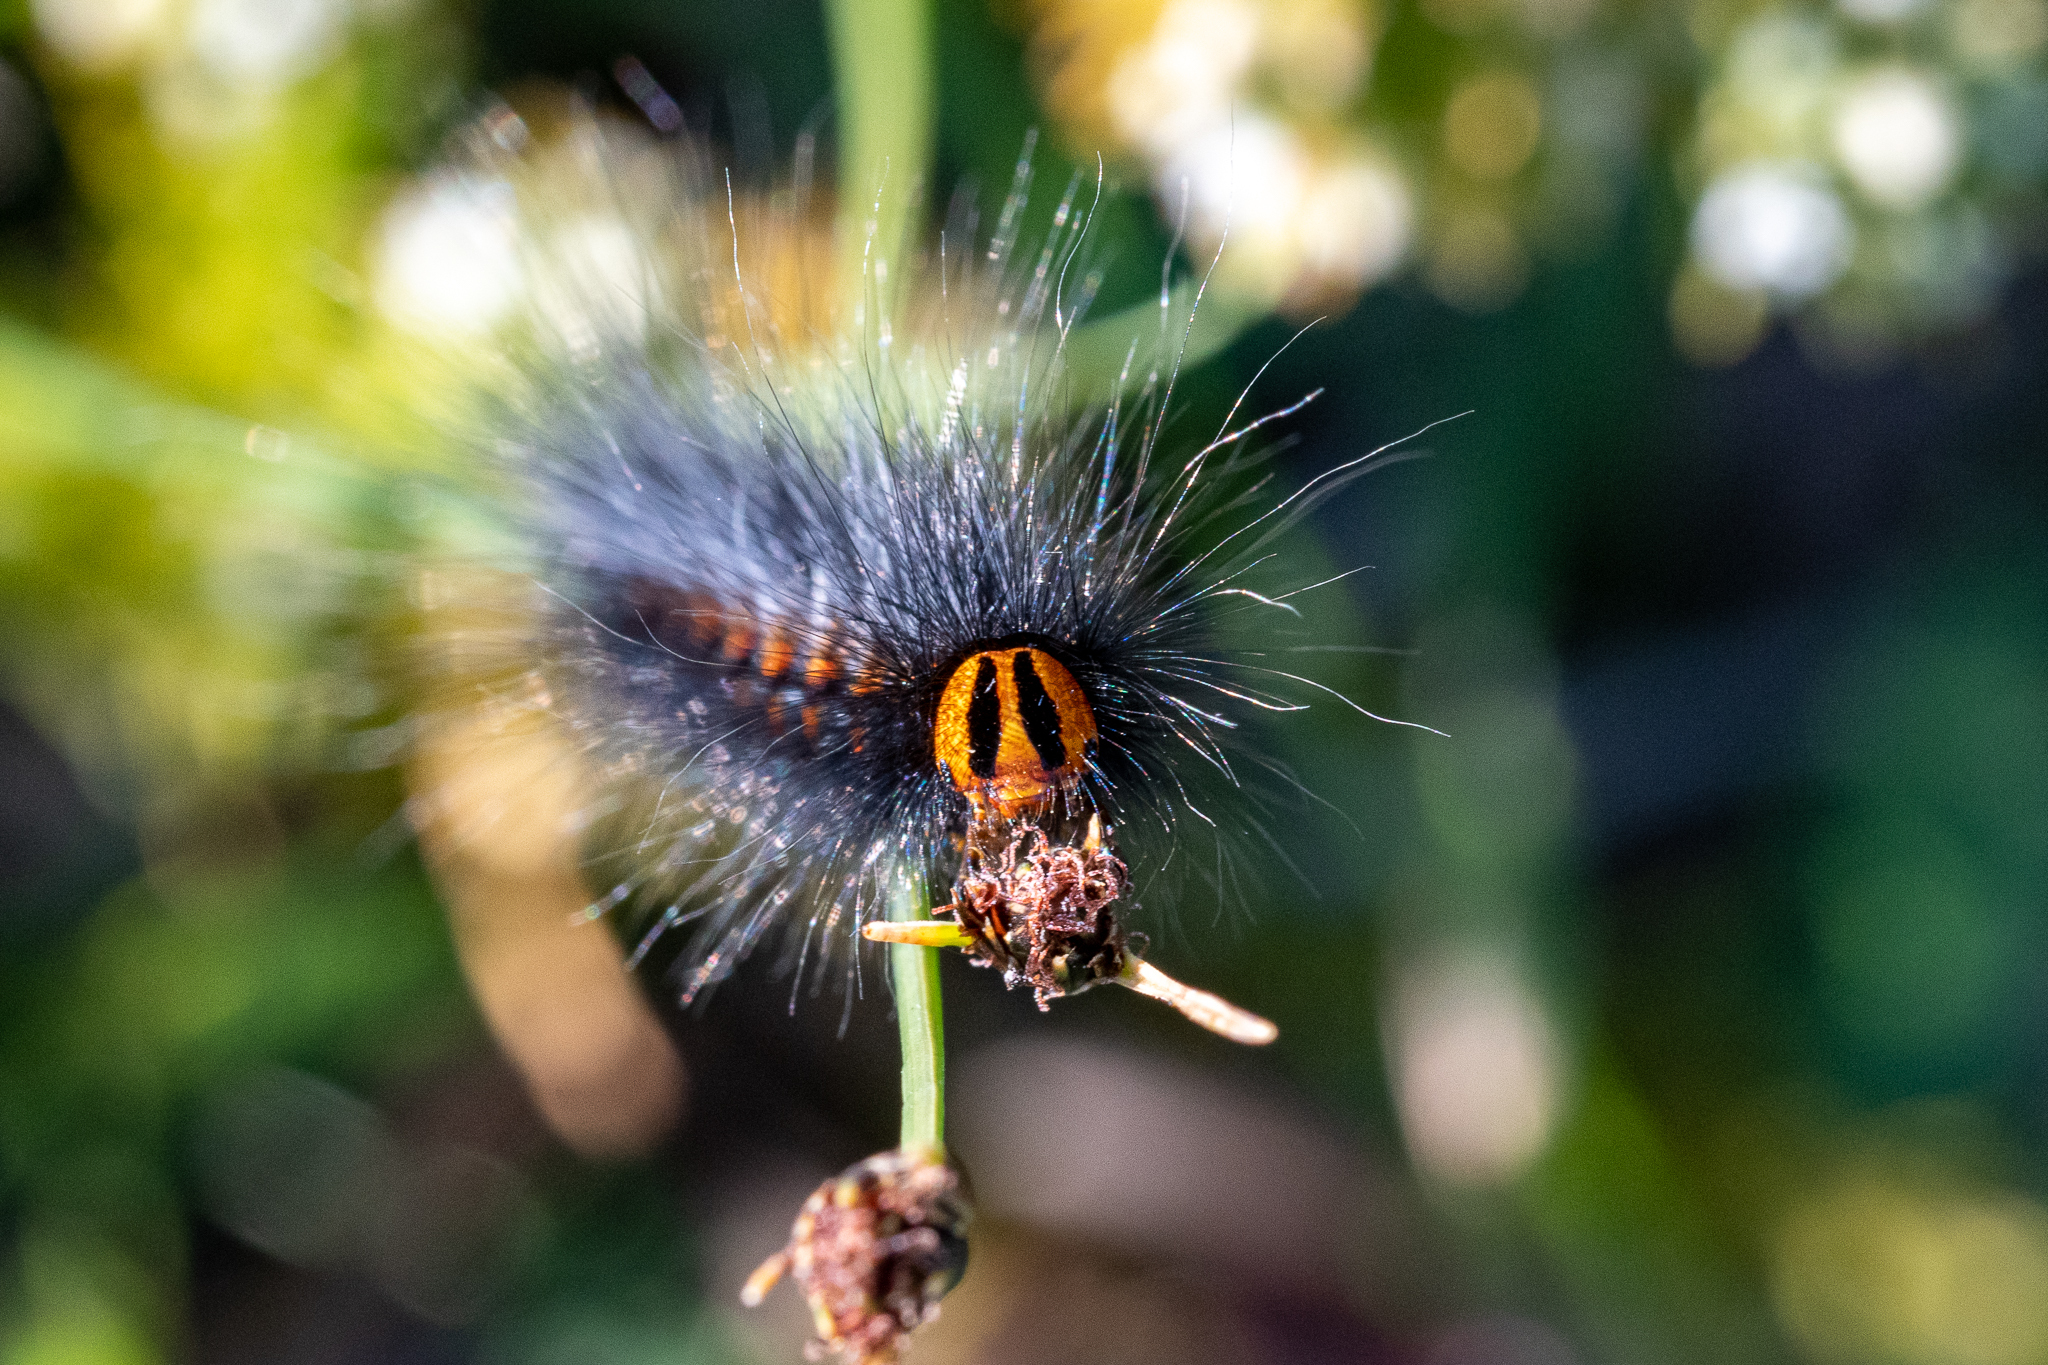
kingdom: Animalia
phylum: Arthropoda
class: Insecta
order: Lepidoptera
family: Lasiocampidae
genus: Mesocelis
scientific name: Mesocelis monticola
